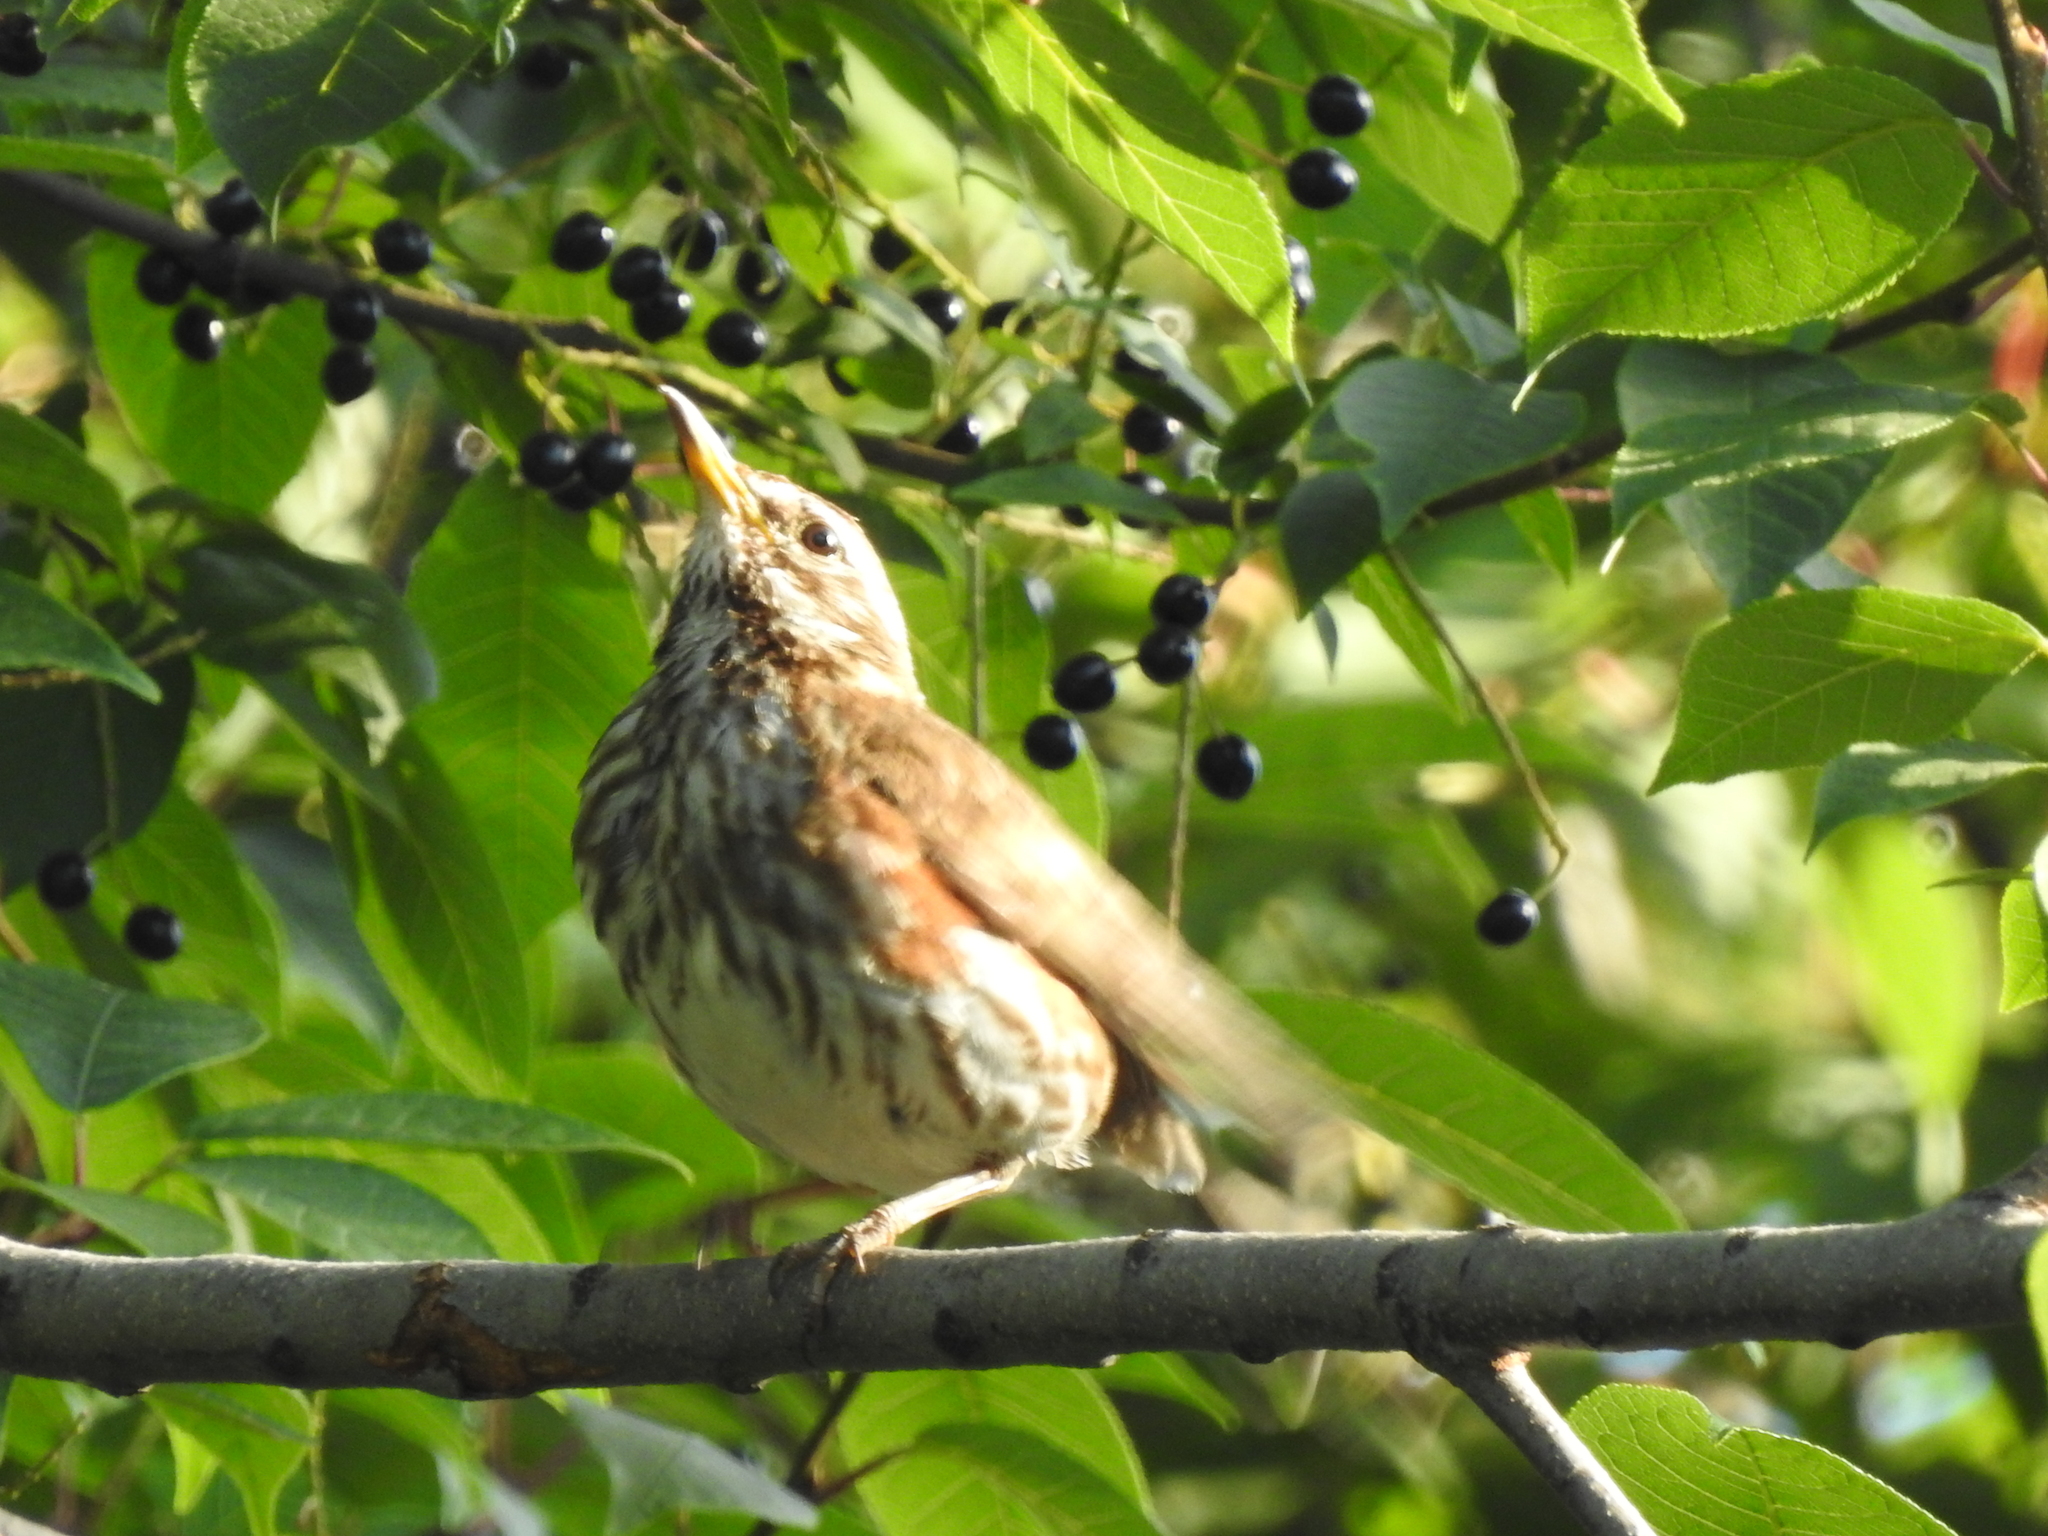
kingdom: Animalia
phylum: Chordata
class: Aves
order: Passeriformes
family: Turdidae
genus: Turdus
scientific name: Turdus iliacus
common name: Redwing
